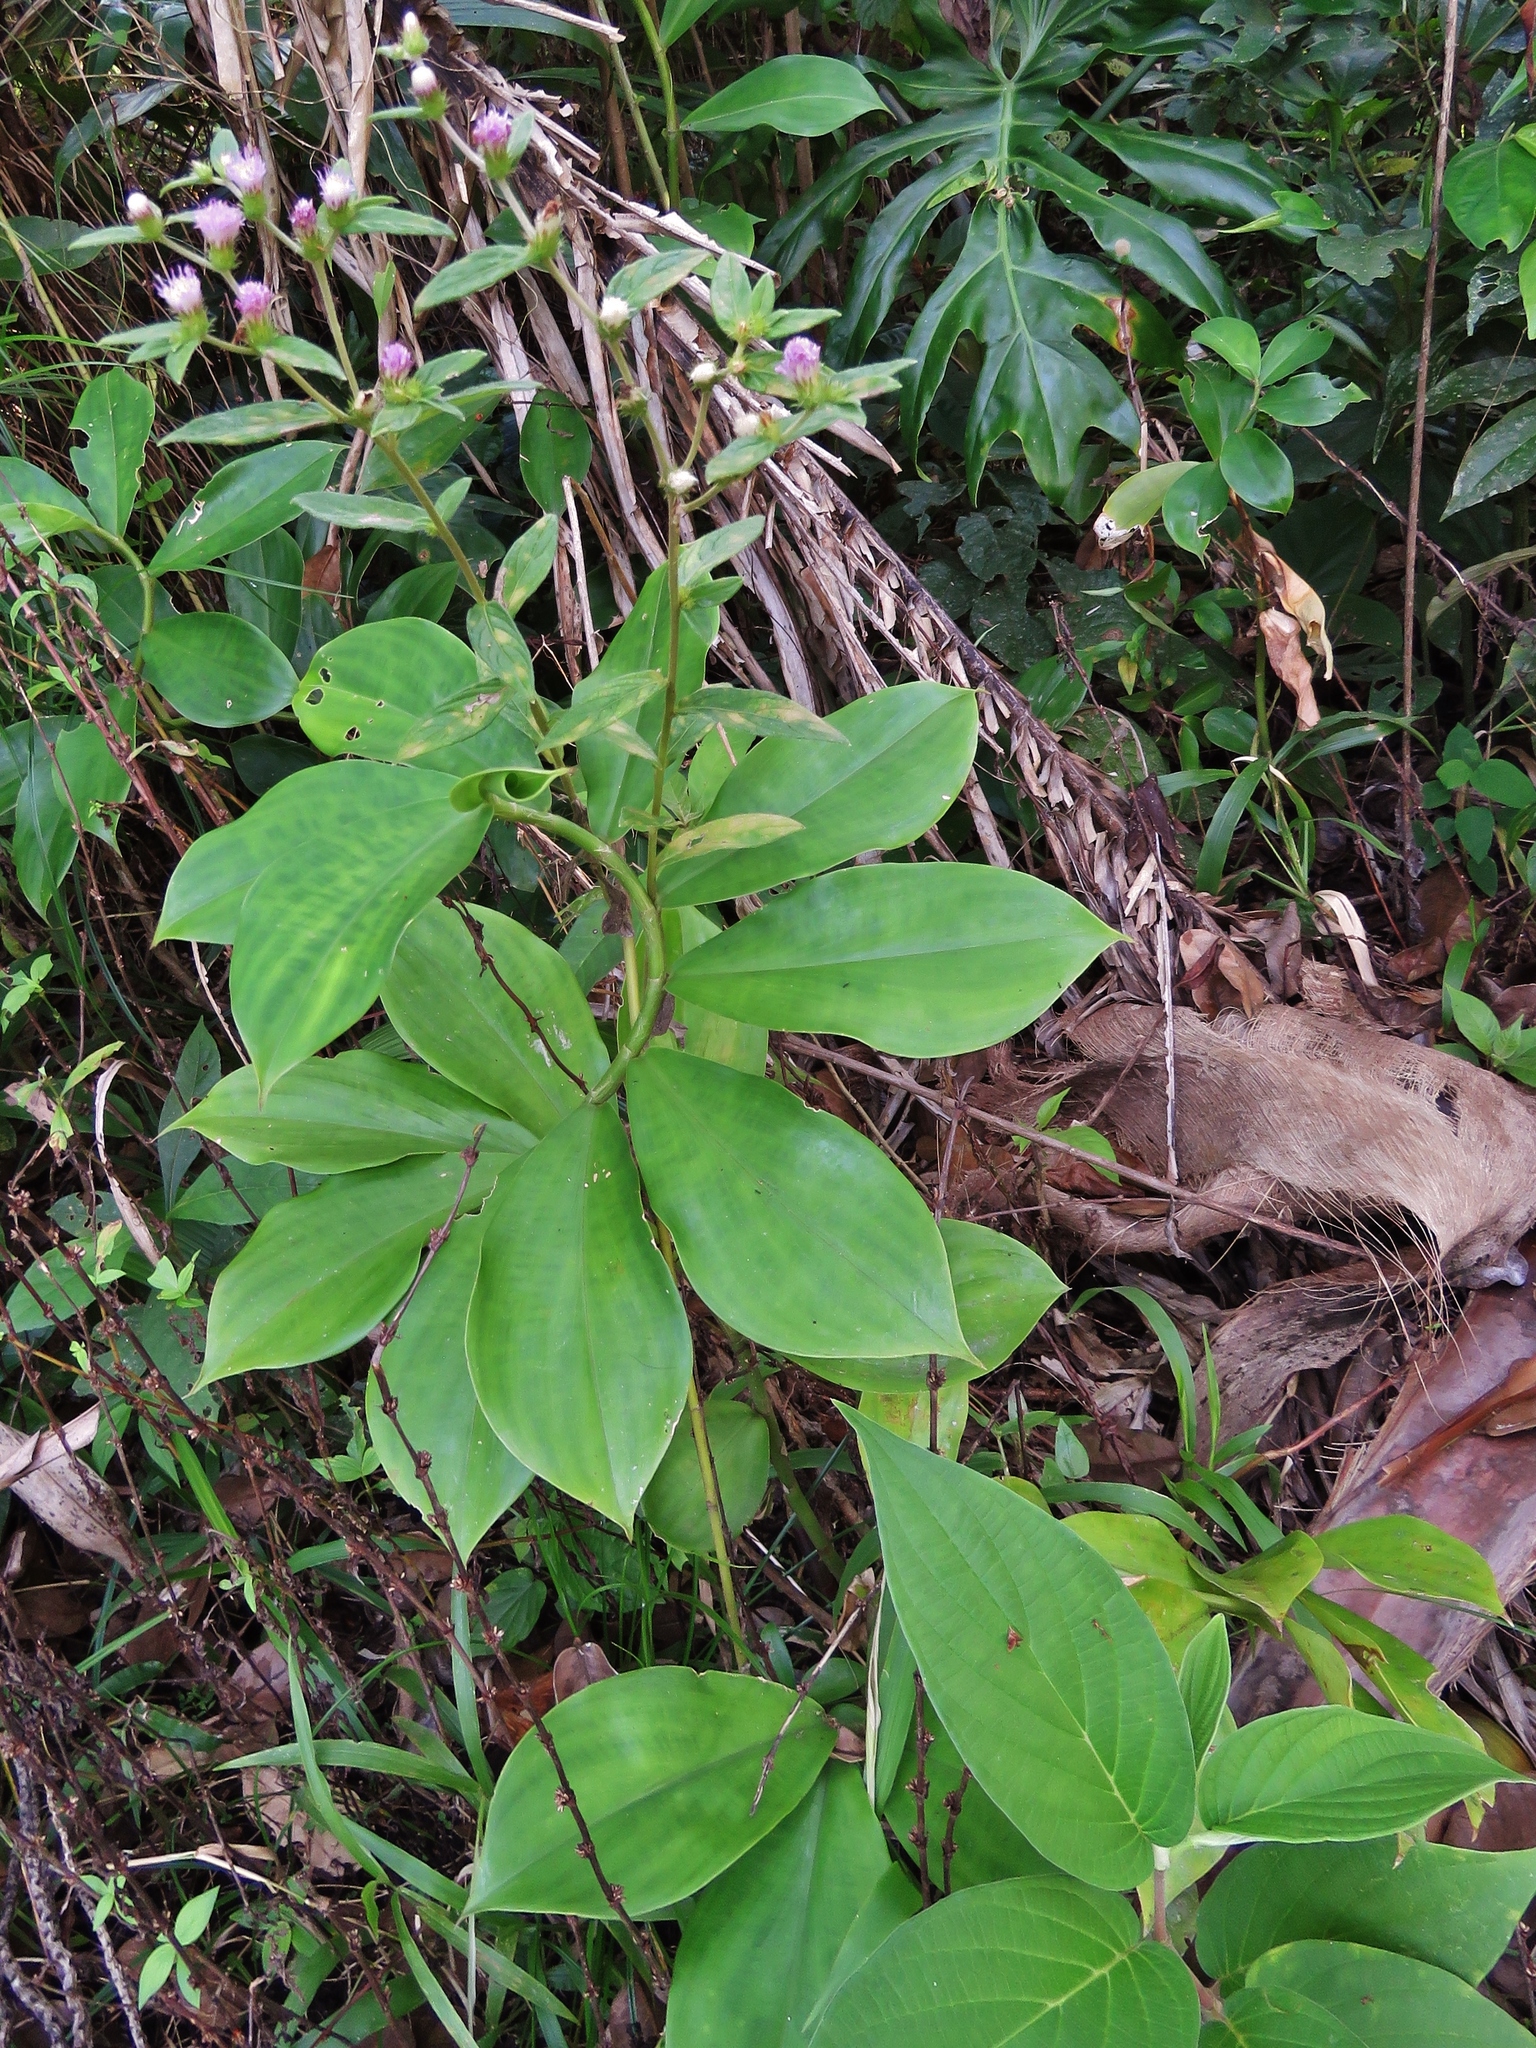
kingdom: Plantae
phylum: Tracheophyta
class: Magnoliopsida
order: Asterales
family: Asteraceae
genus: Cyanthillium
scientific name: Cyanthillium cinereum
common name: Little ironweed
